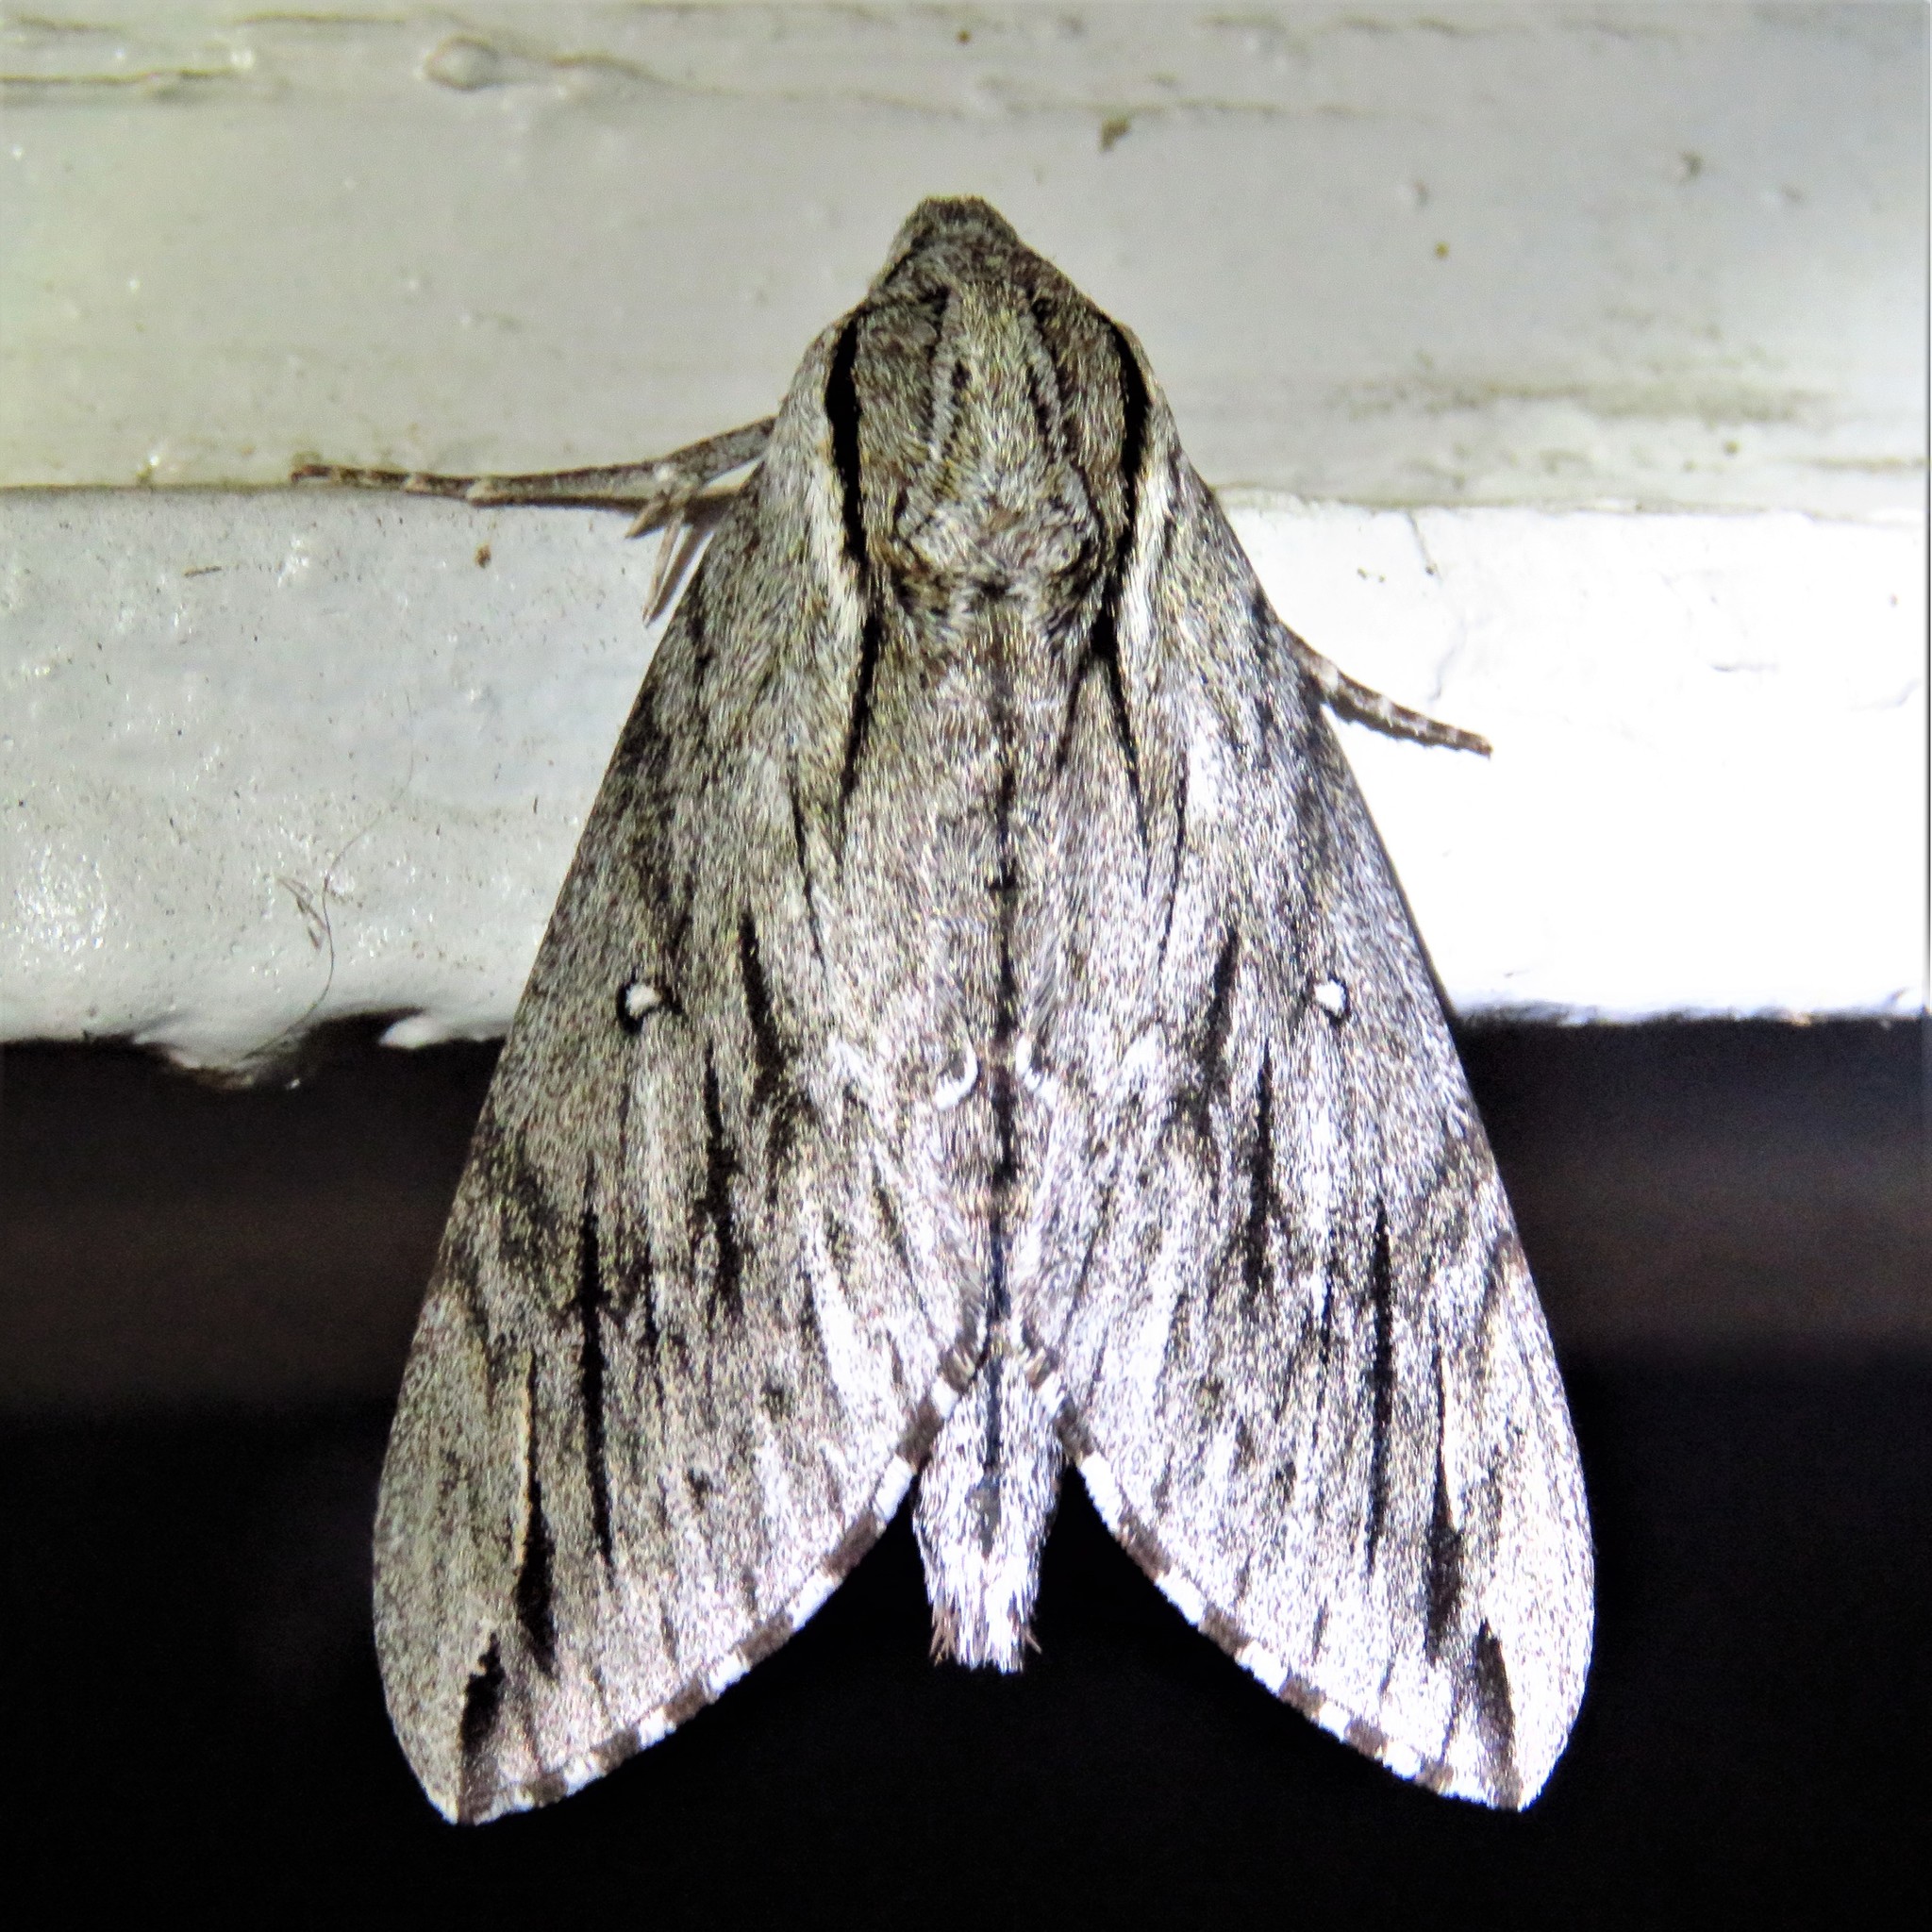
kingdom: Animalia
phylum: Arthropoda
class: Insecta
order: Lepidoptera
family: Sphingidae
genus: Paratrea
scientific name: Paratrea plebeja
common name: Plebian sphinx
